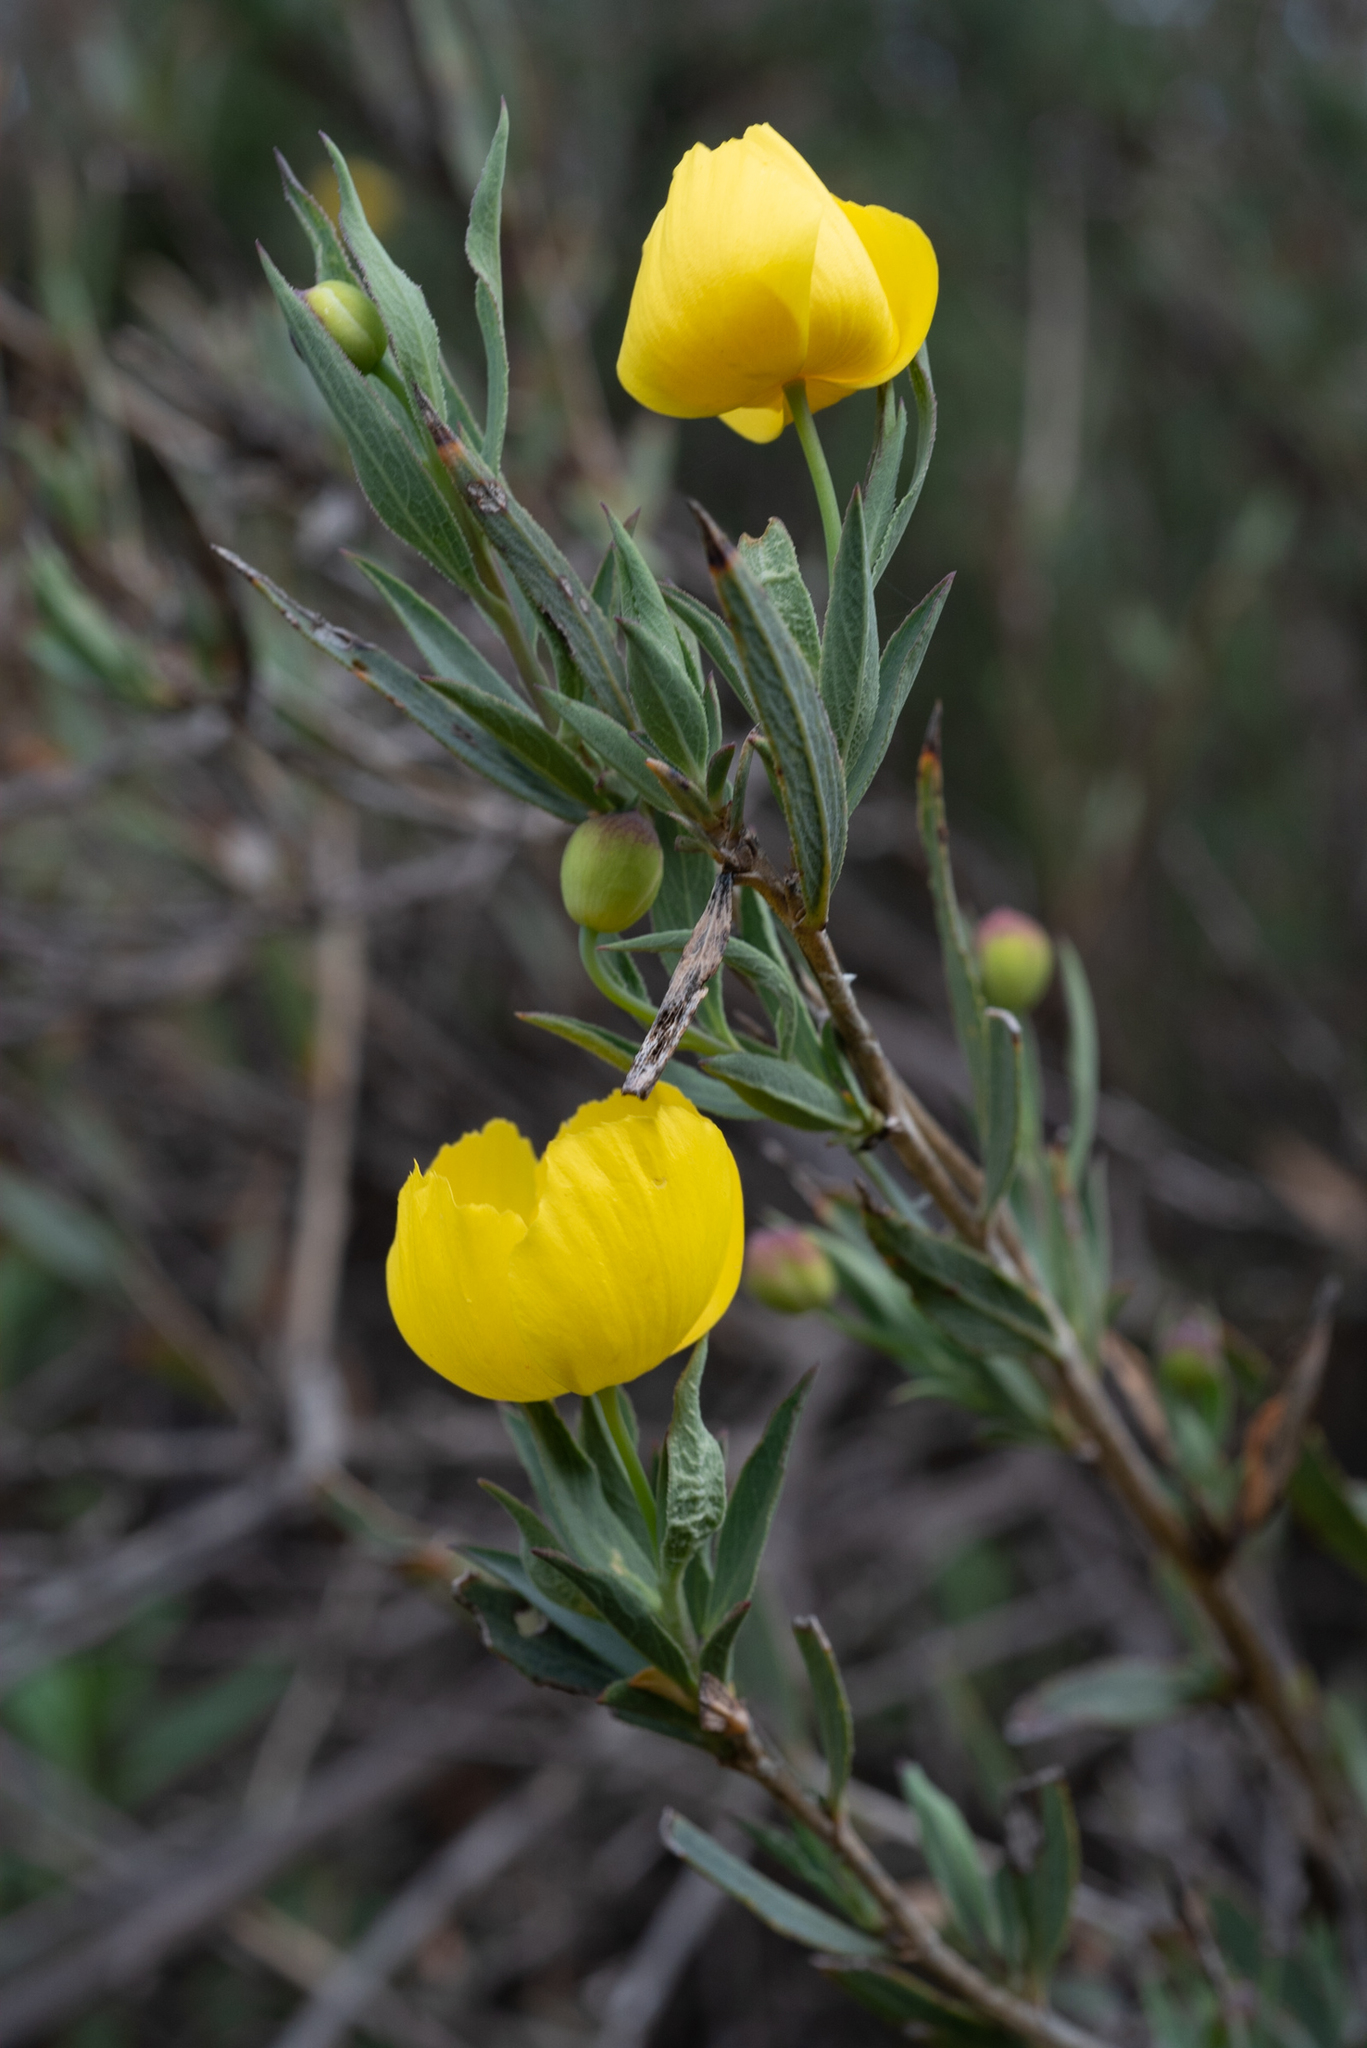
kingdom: Plantae
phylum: Tracheophyta
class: Magnoliopsida
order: Ranunculales
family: Papaveraceae
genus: Dendromecon
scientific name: Dendromecon rigida
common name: Tree poppy
